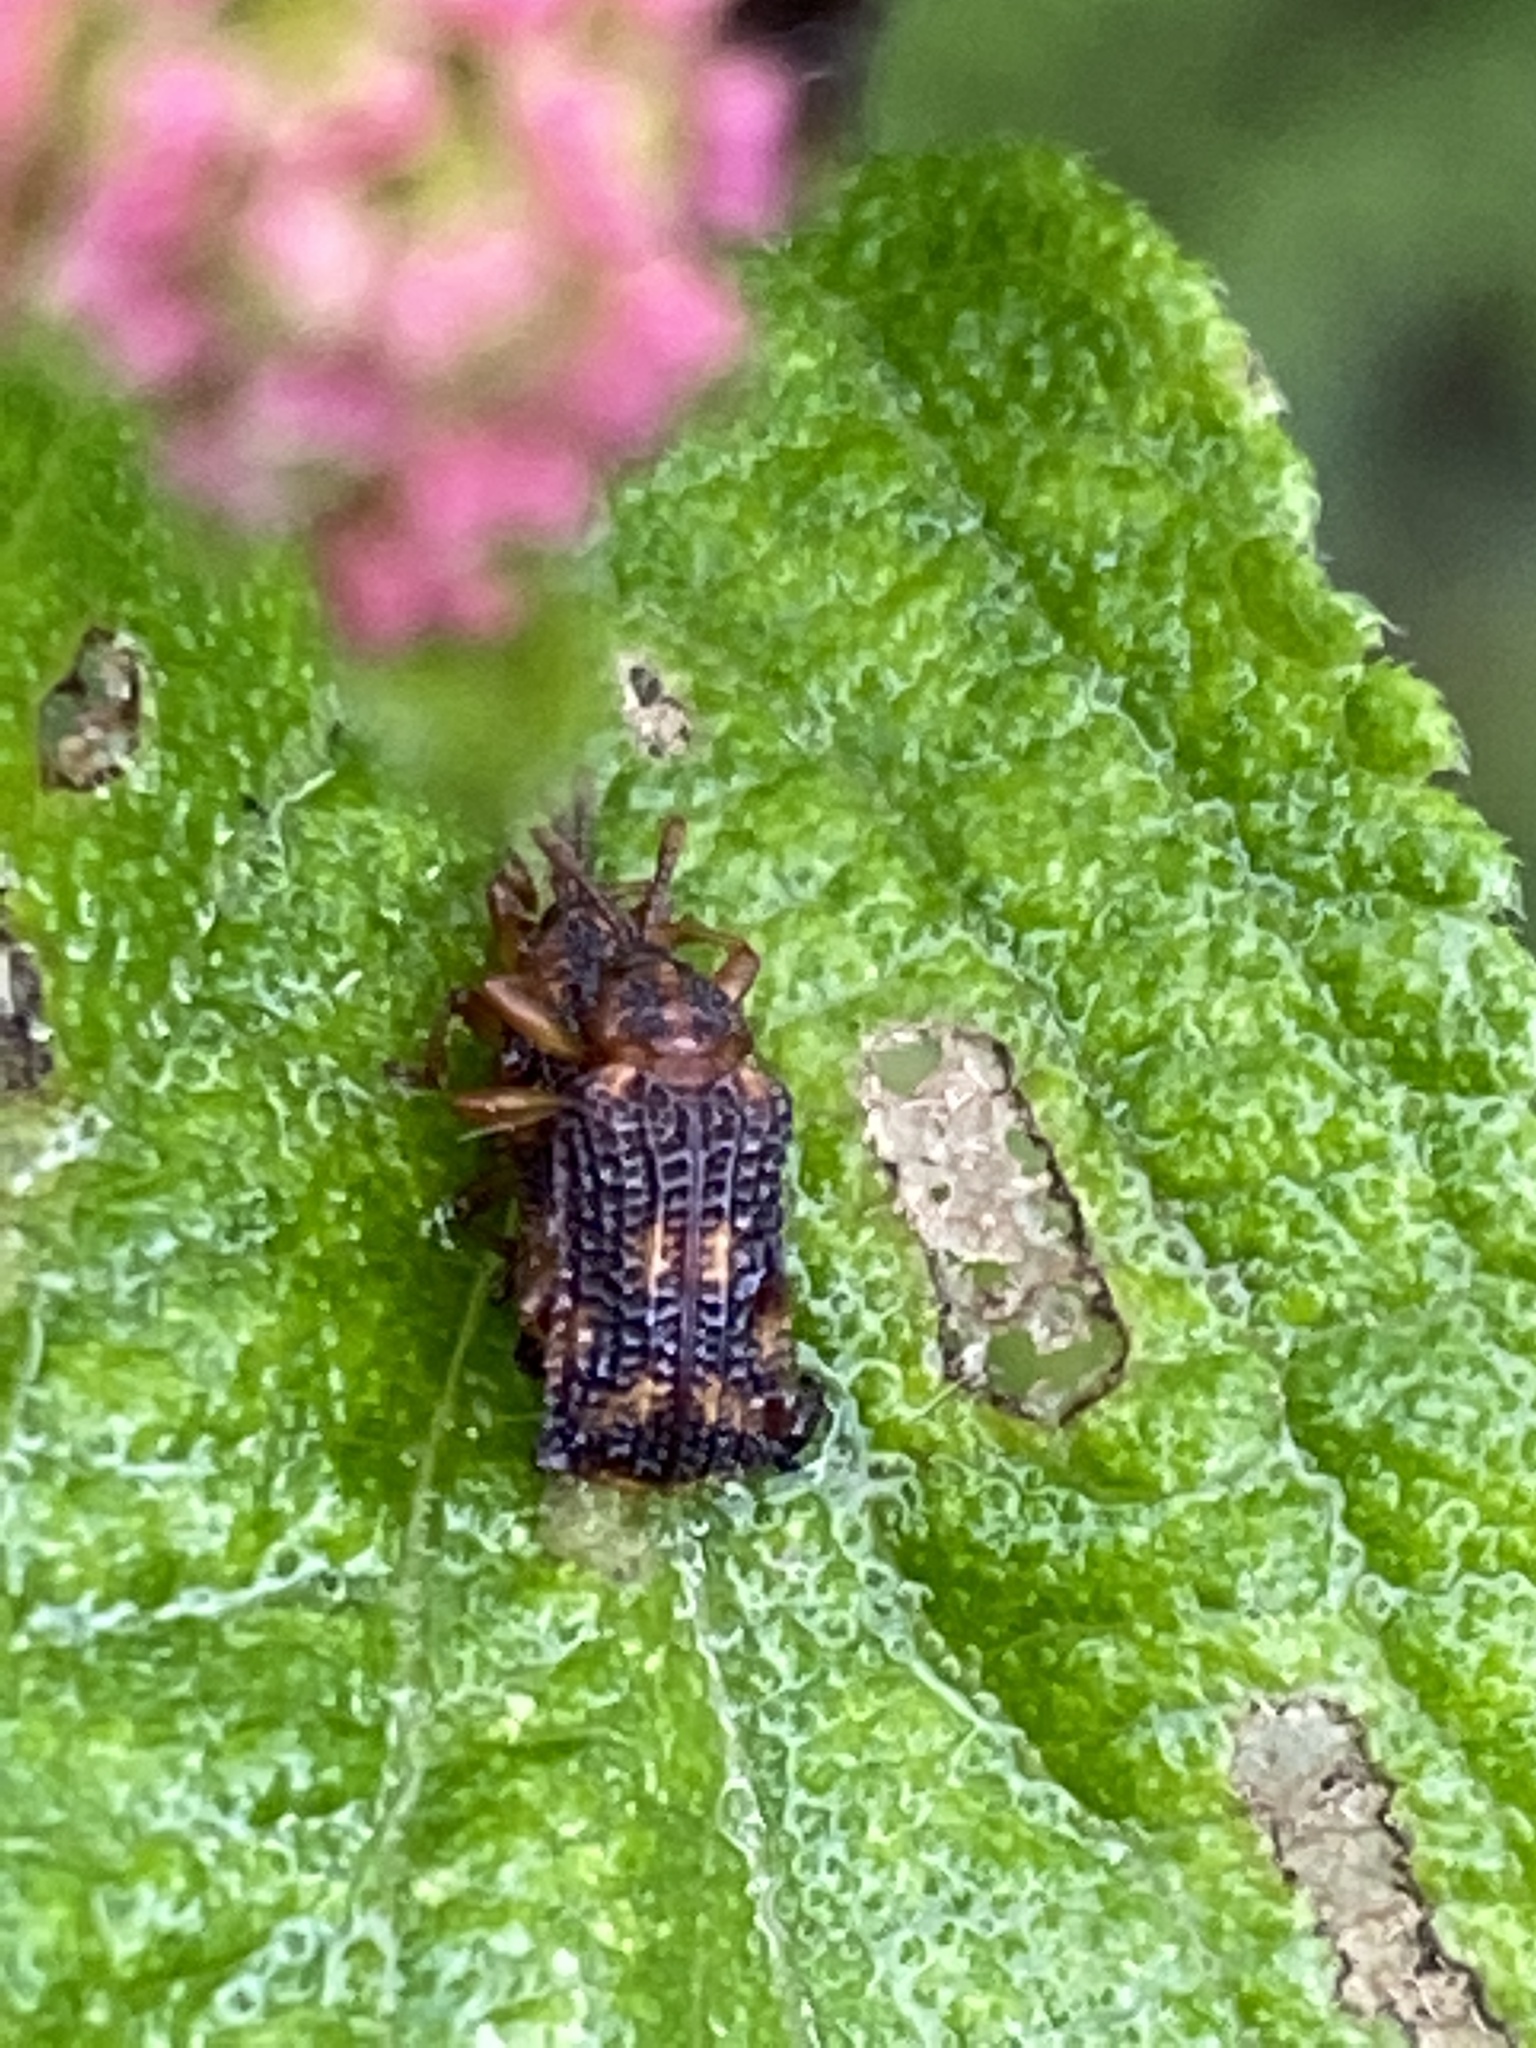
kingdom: Animalia
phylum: Arthropoda
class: Insecta
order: Coleoptera
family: Chrysomelidae
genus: Uroplata
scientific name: Uroplata girardi
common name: Lantana leafminer
